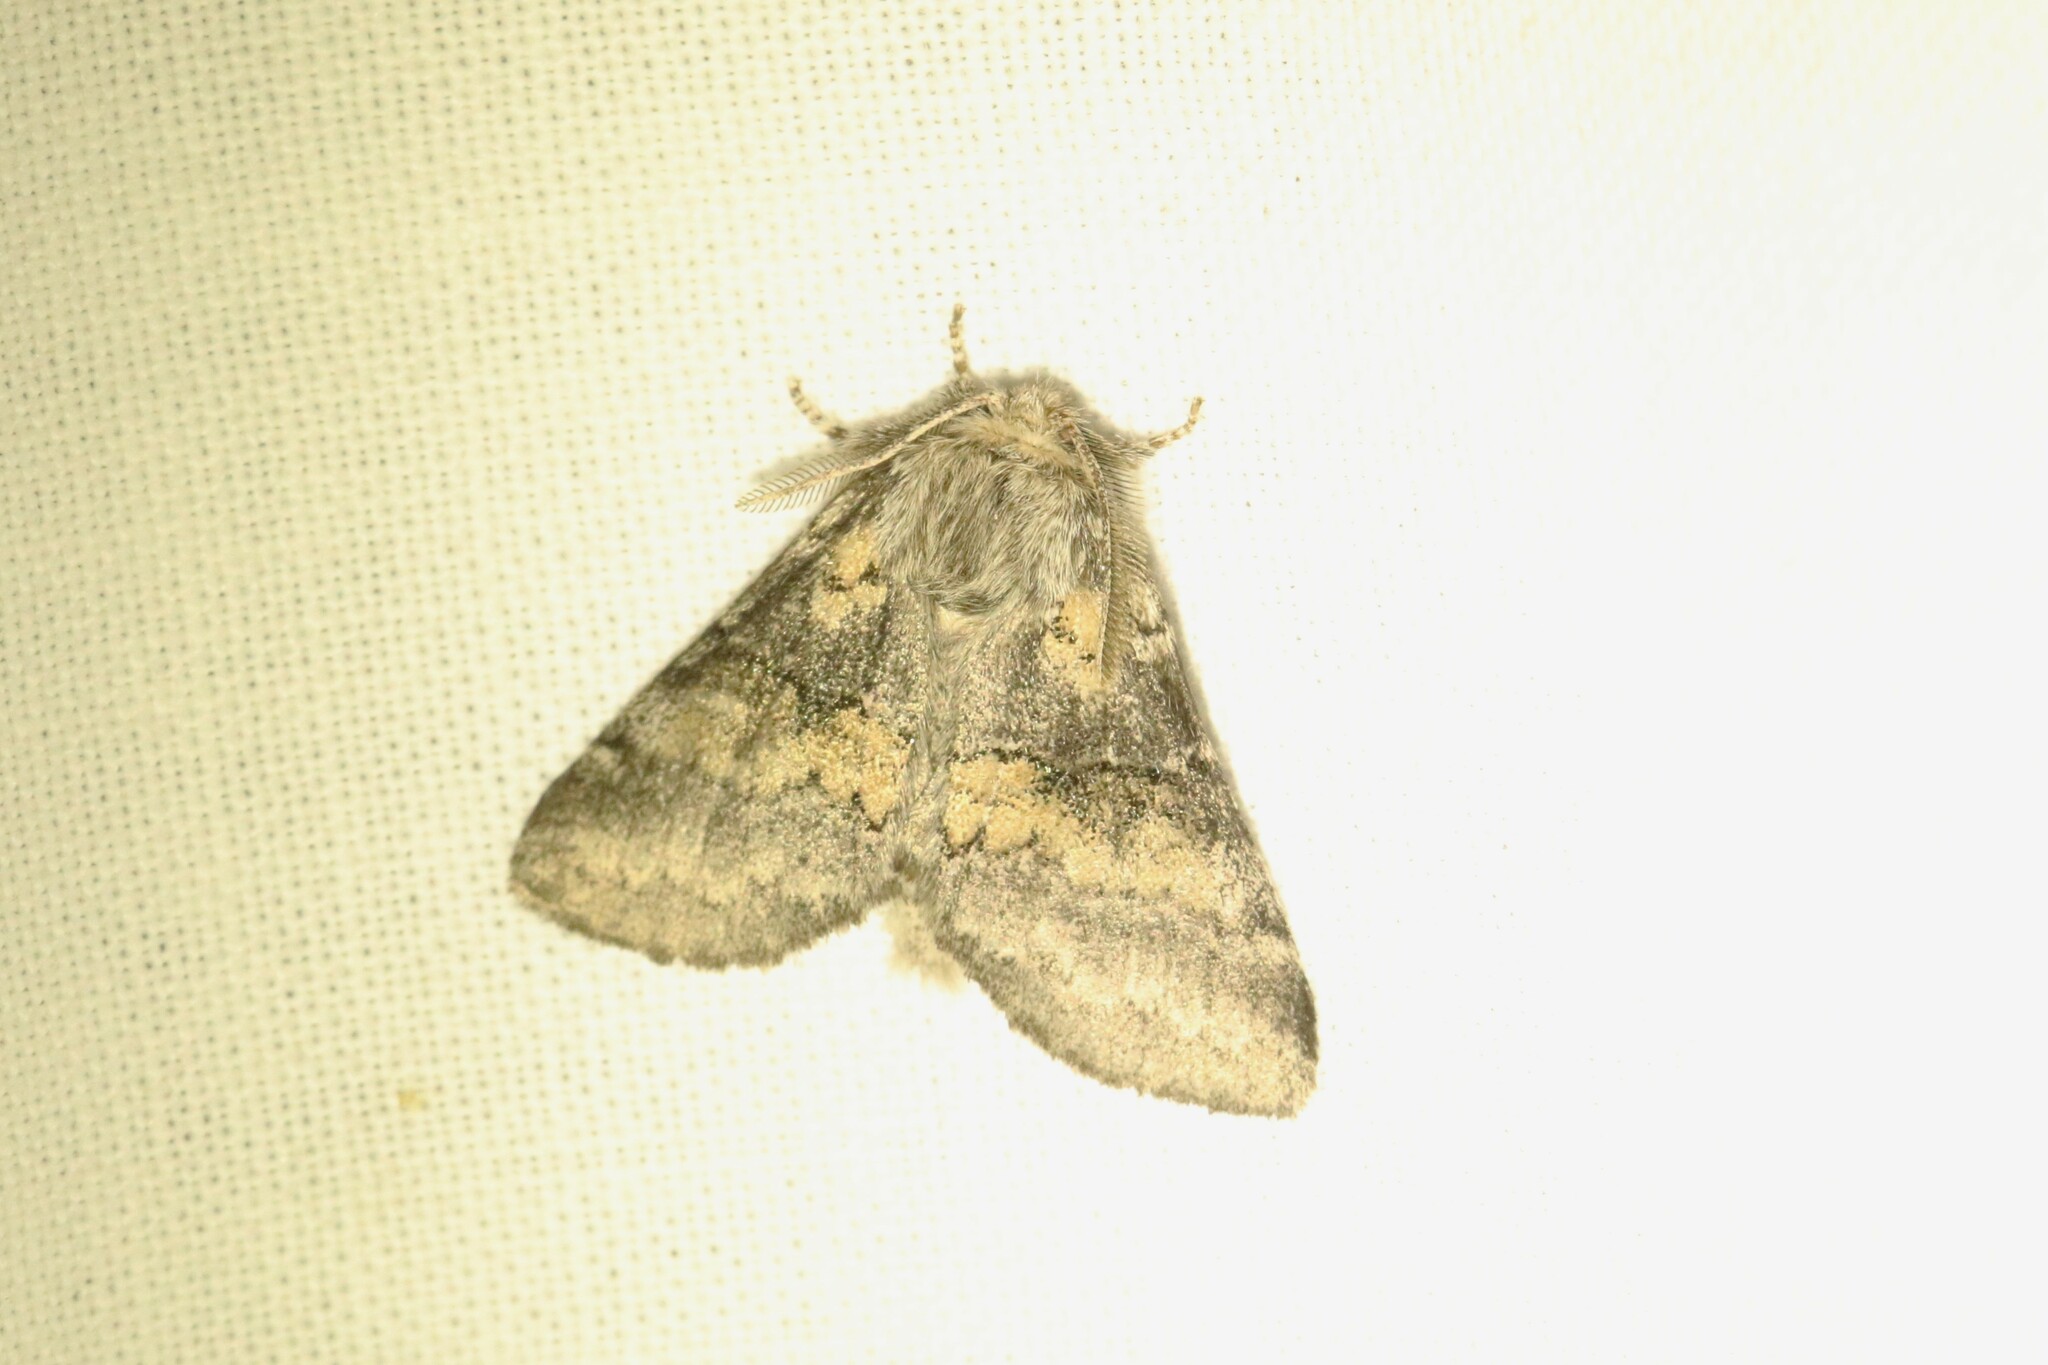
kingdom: Animalia
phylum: Arthropoda
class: Insecta
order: Lepidoptera
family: Notodontidae
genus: Gluphisia
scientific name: Gluphisia septentrionis
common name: Common gluphisia
